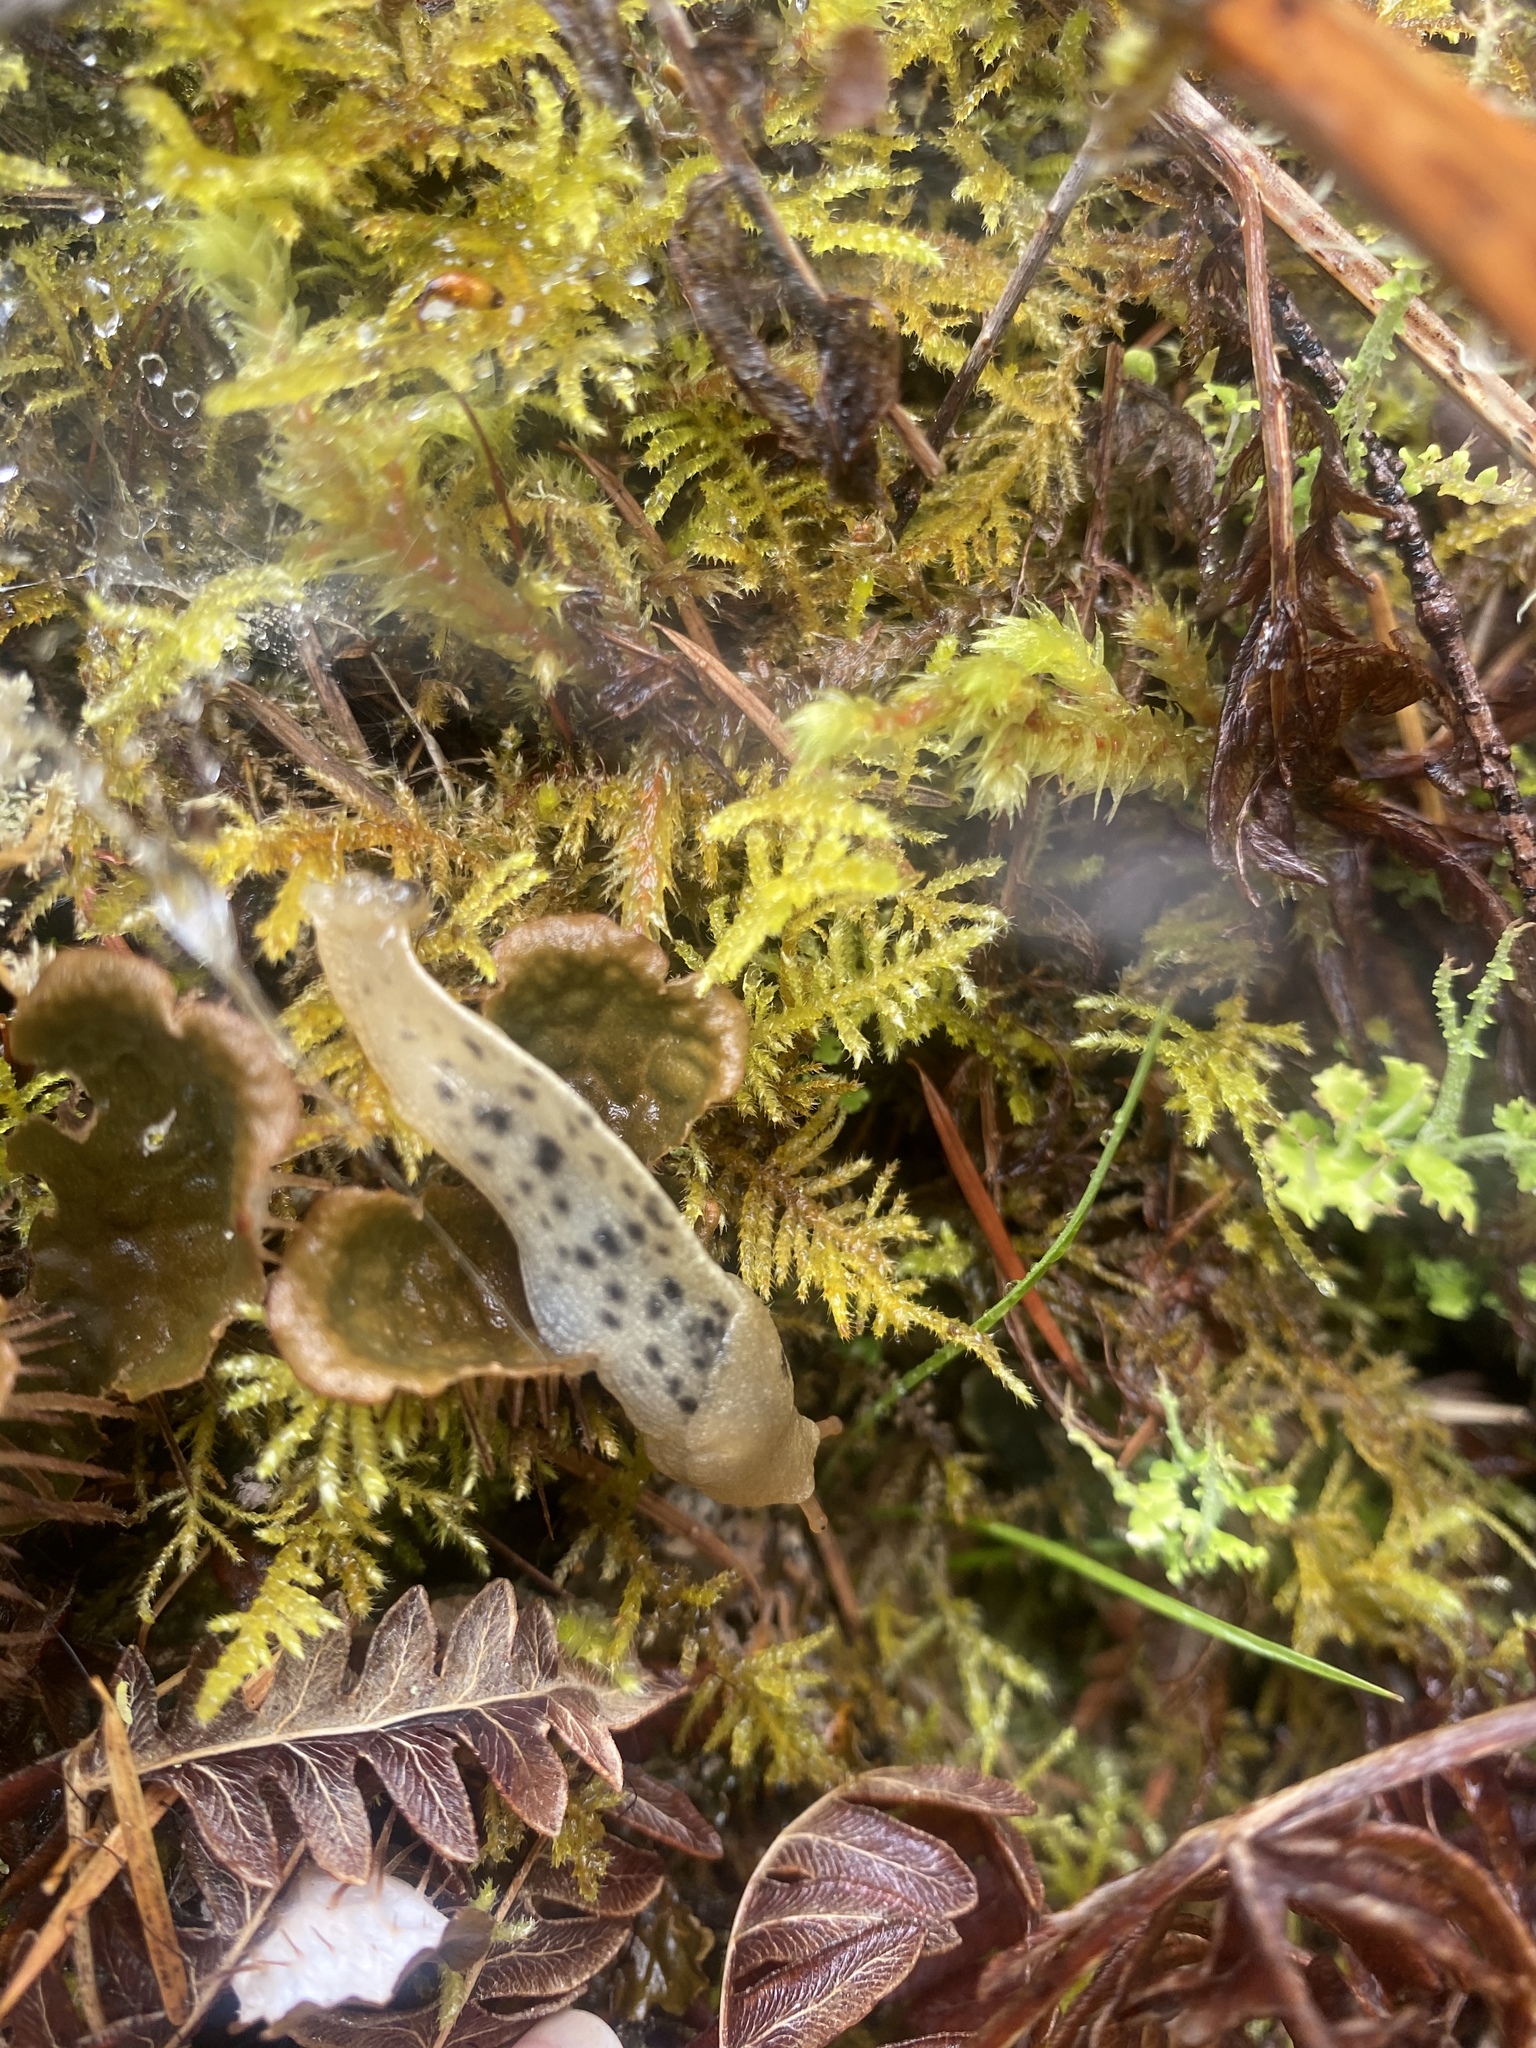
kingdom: Animalia
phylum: Mollusca
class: Gastropoda
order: Stylommatophora
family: Ariolimacidae
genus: Ariolimax
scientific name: Ariolimax columbianus
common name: Pacific banana slug
